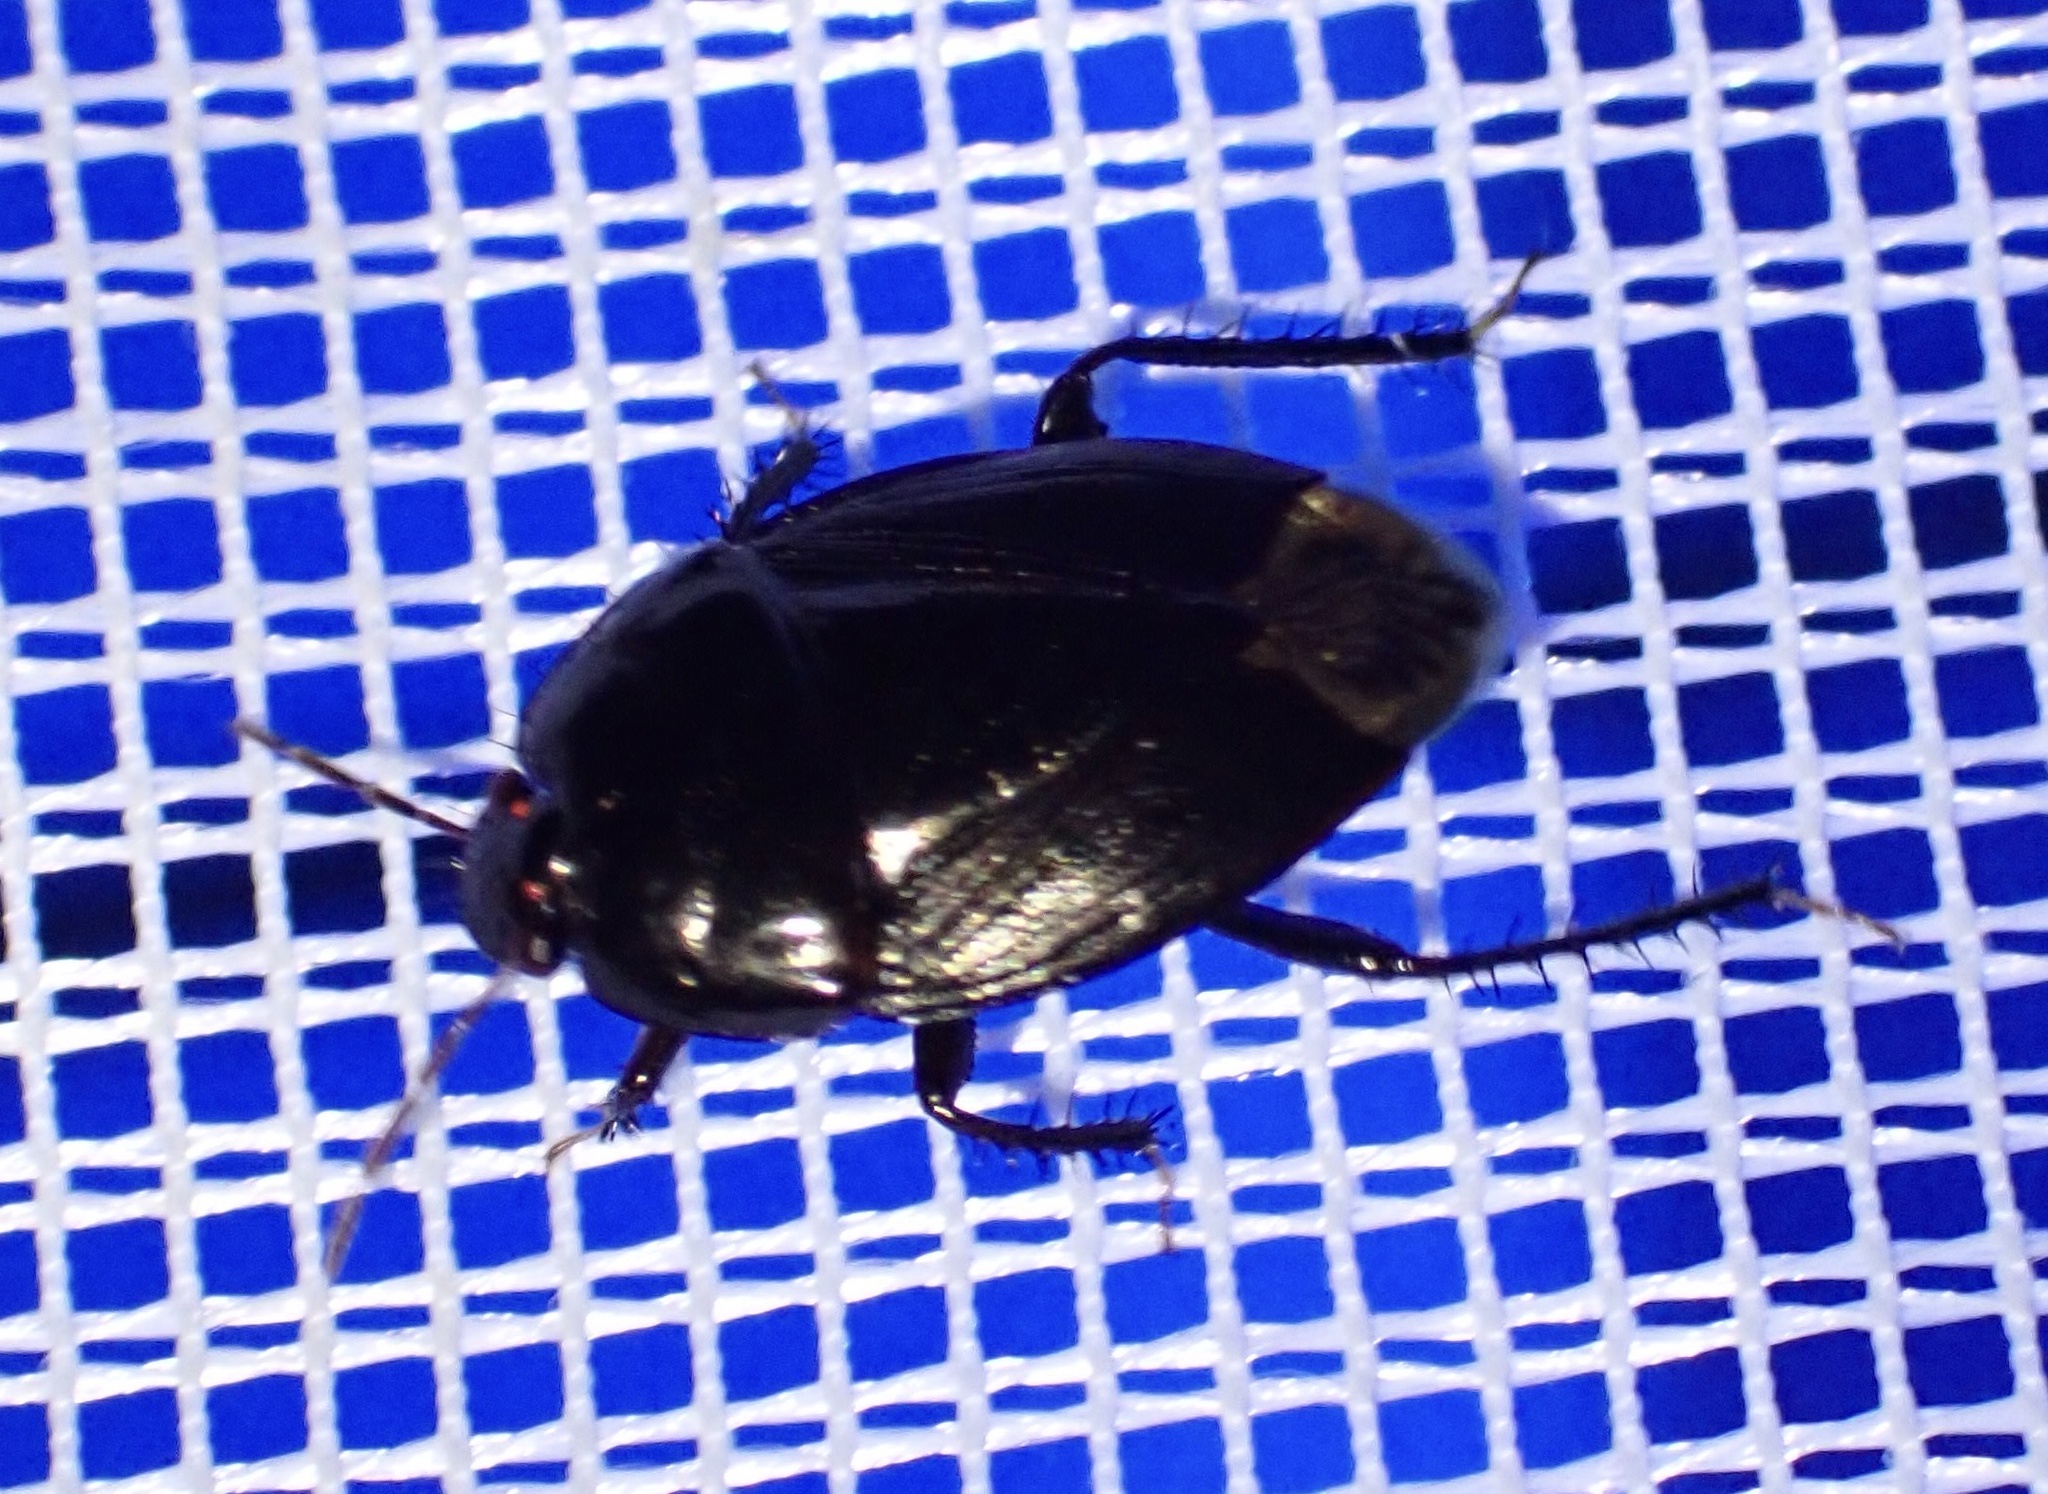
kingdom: Animalia
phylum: Arthropoda
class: Insecta
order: Hemiptera
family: Cydnidae
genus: Macroscytus
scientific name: Macroscytus reflexus
